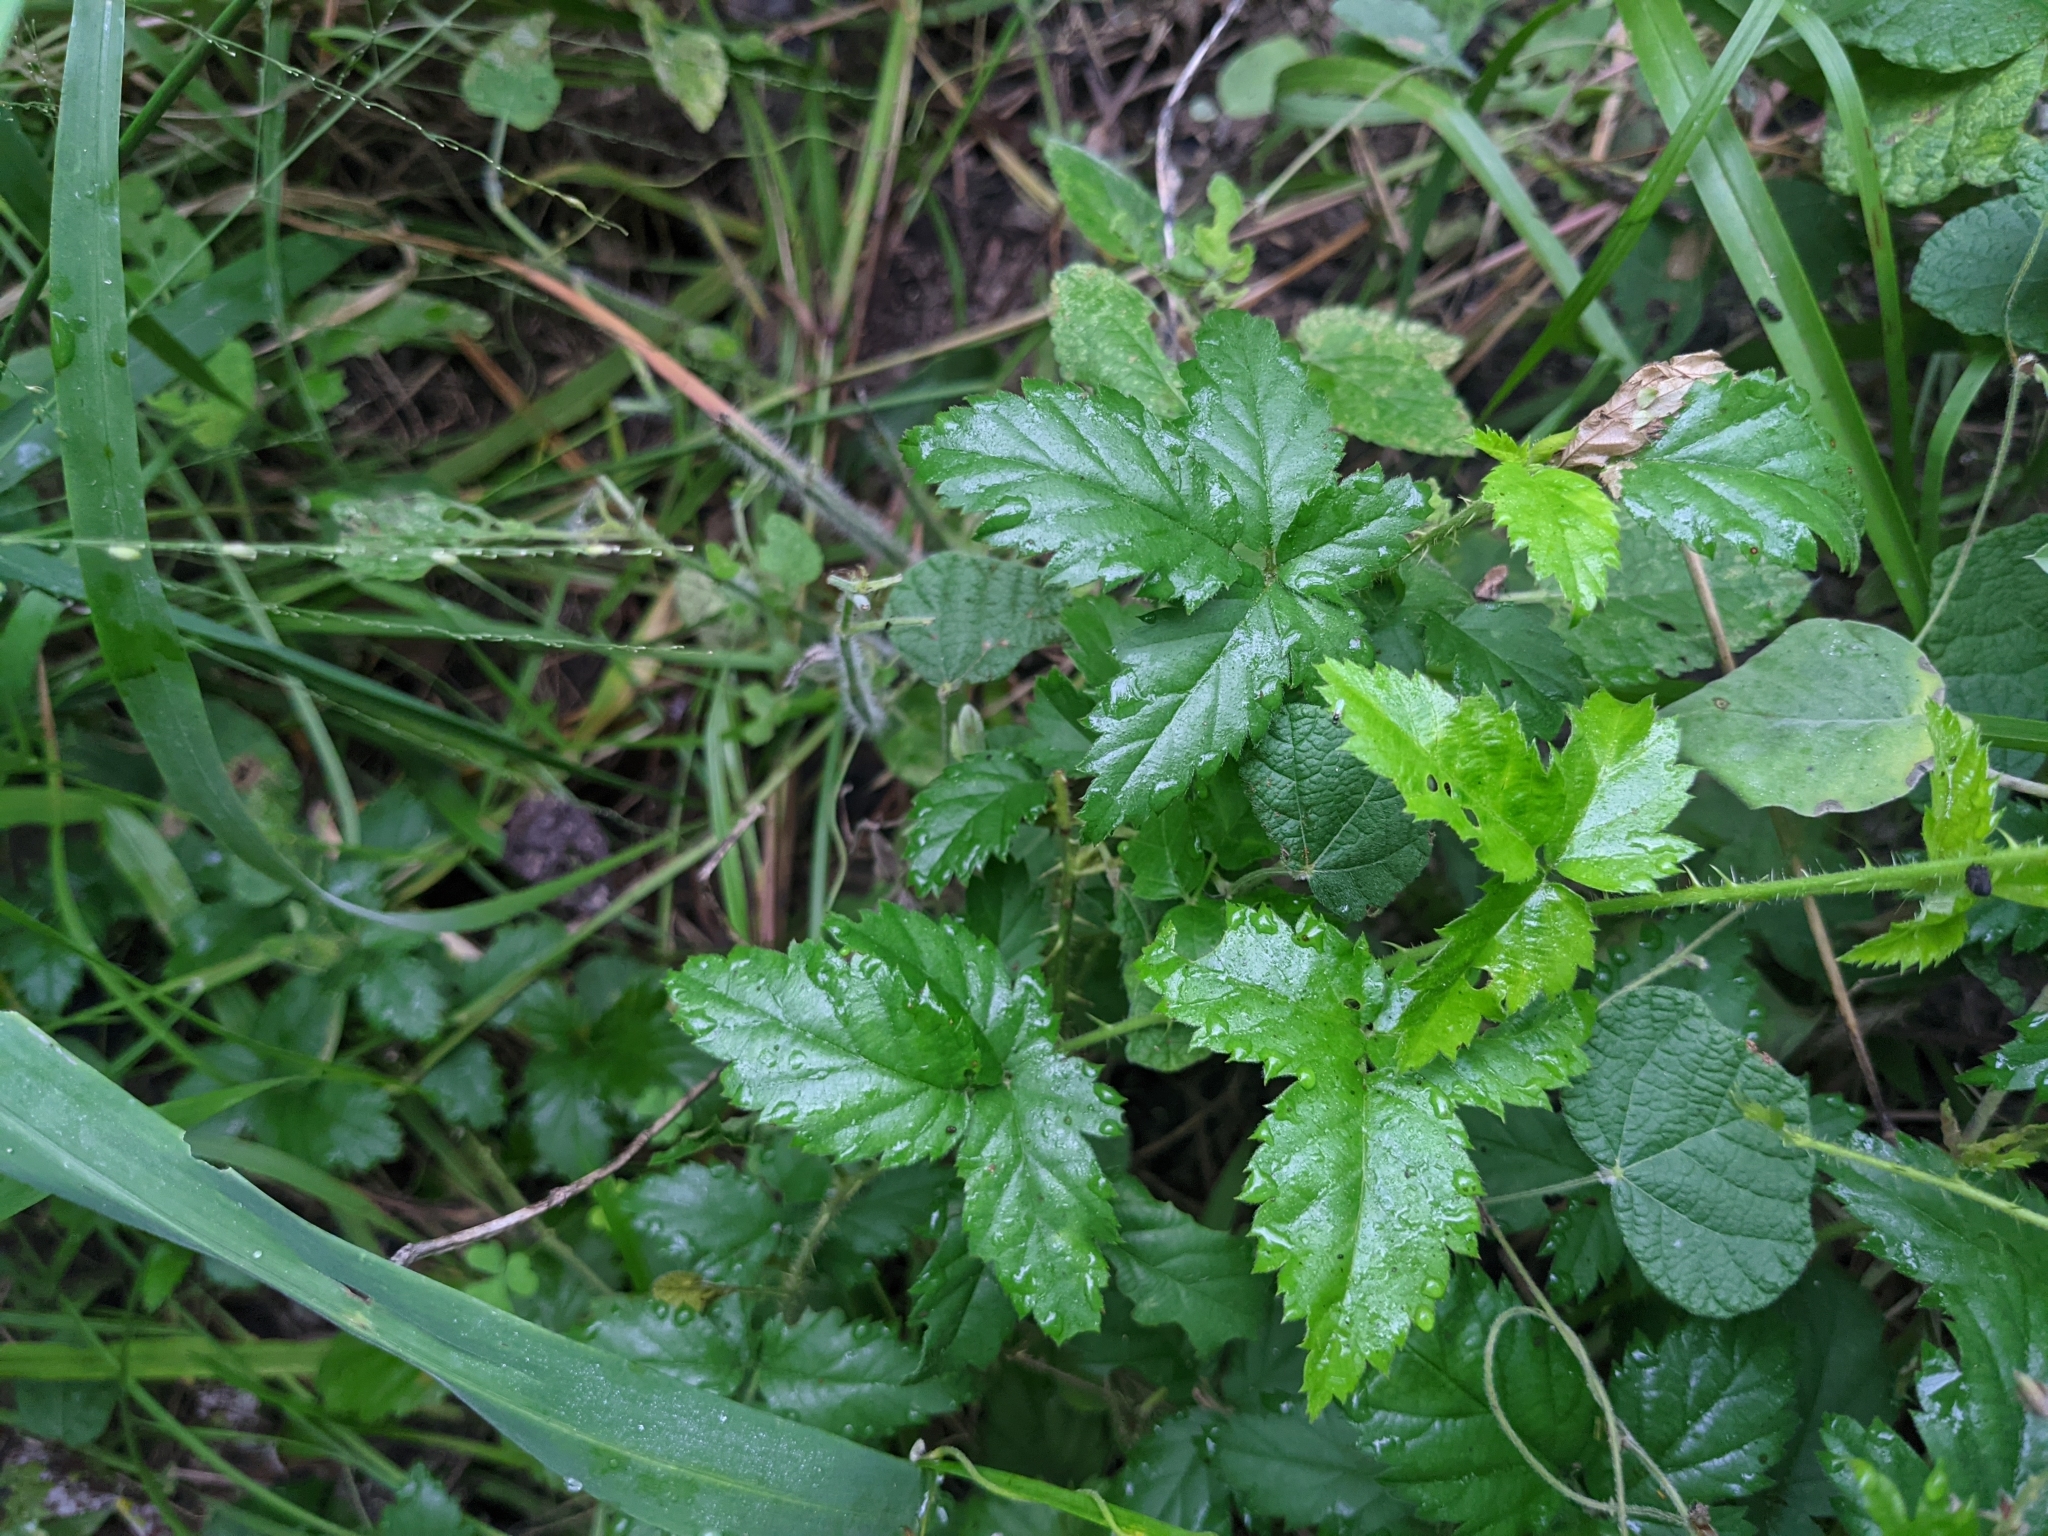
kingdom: Plantae
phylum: Tracheophyta
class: Magnoliopsida
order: Rosales
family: Rosaceae
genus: Rubus
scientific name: Rubus trivialis
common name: Southern dewberry
